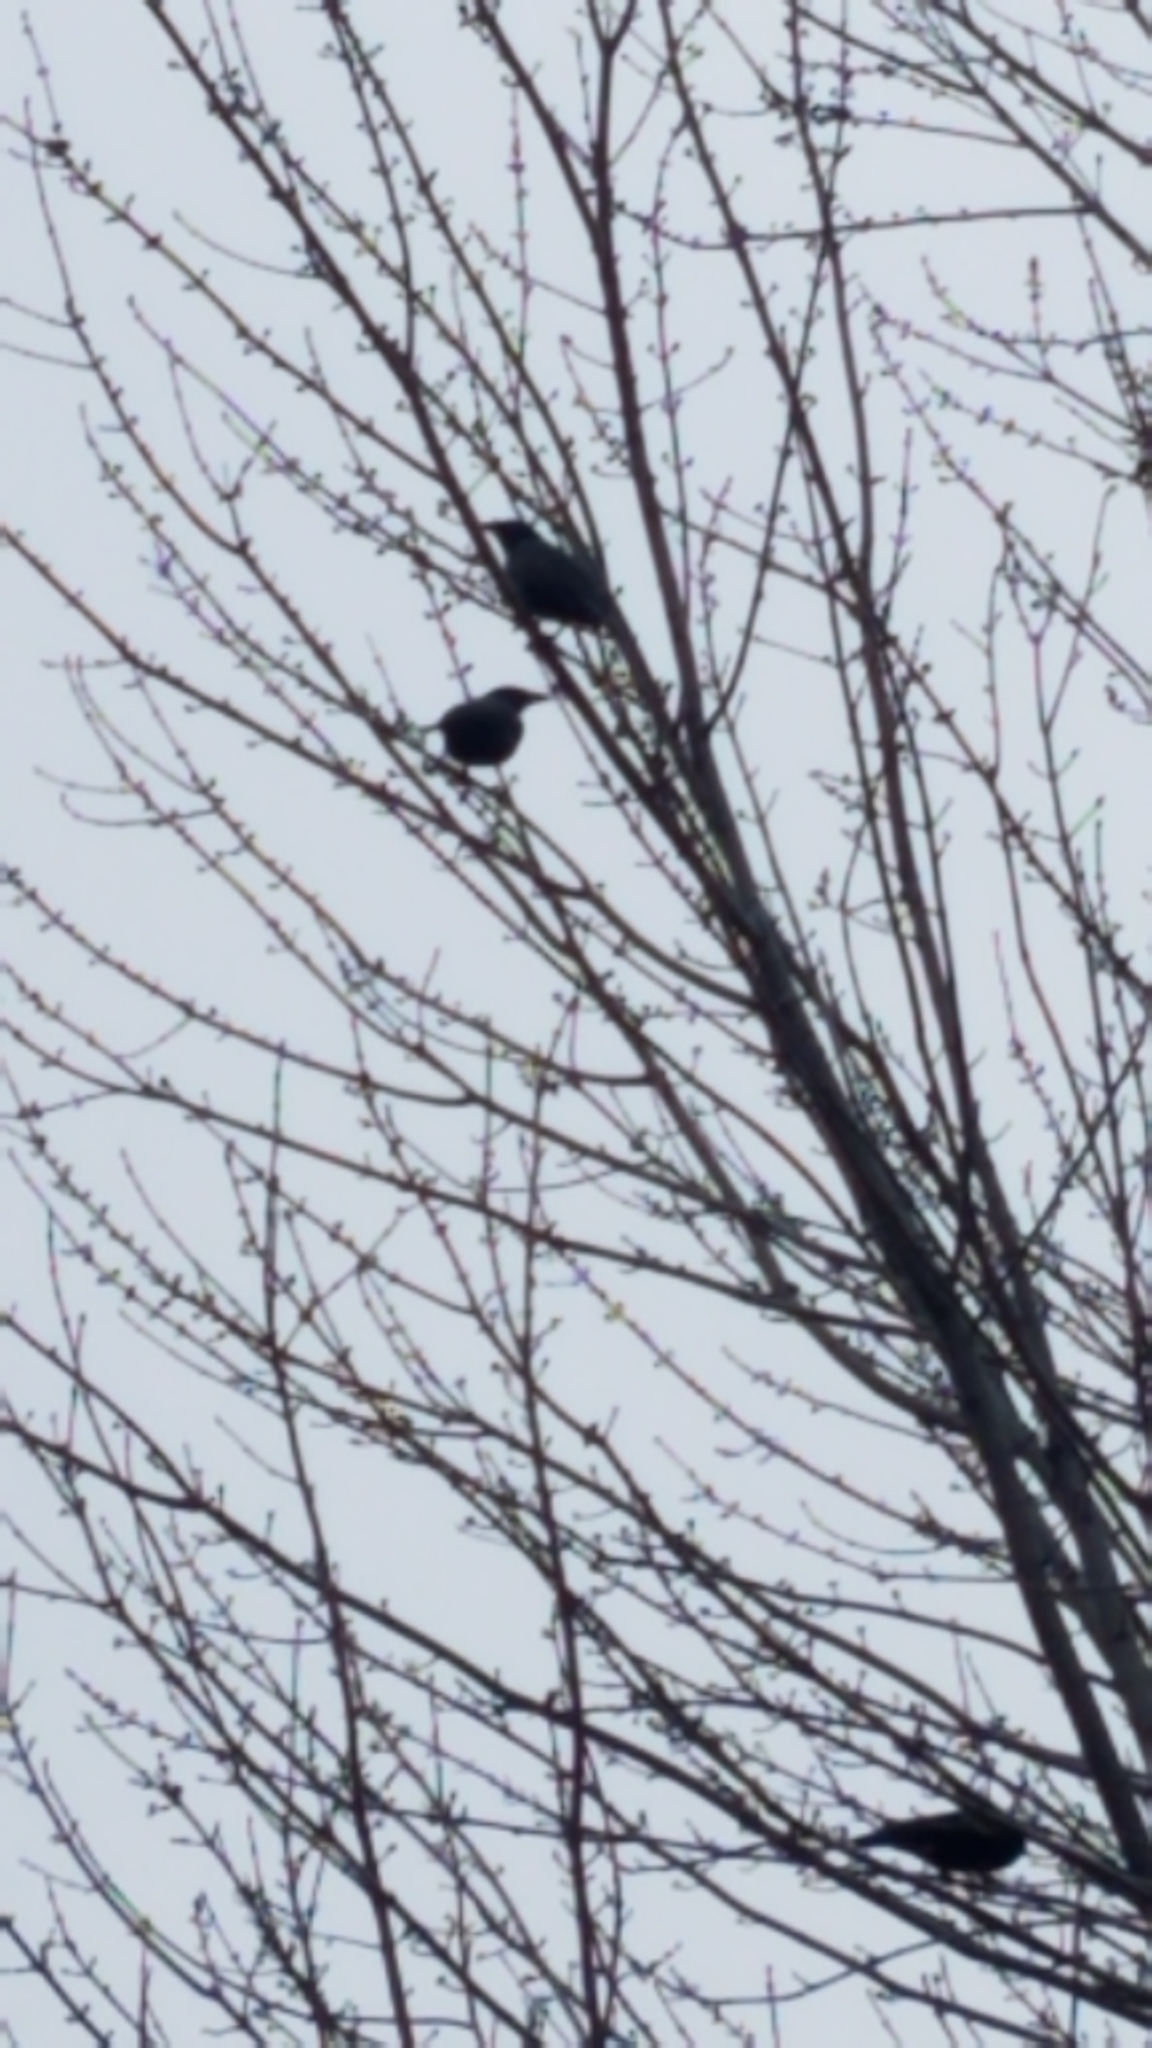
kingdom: Animalia
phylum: Chordata
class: Aves
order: Passeriformes
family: Sturnidae
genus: Sturnus
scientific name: Sturnus vulgaris
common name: Common starling
